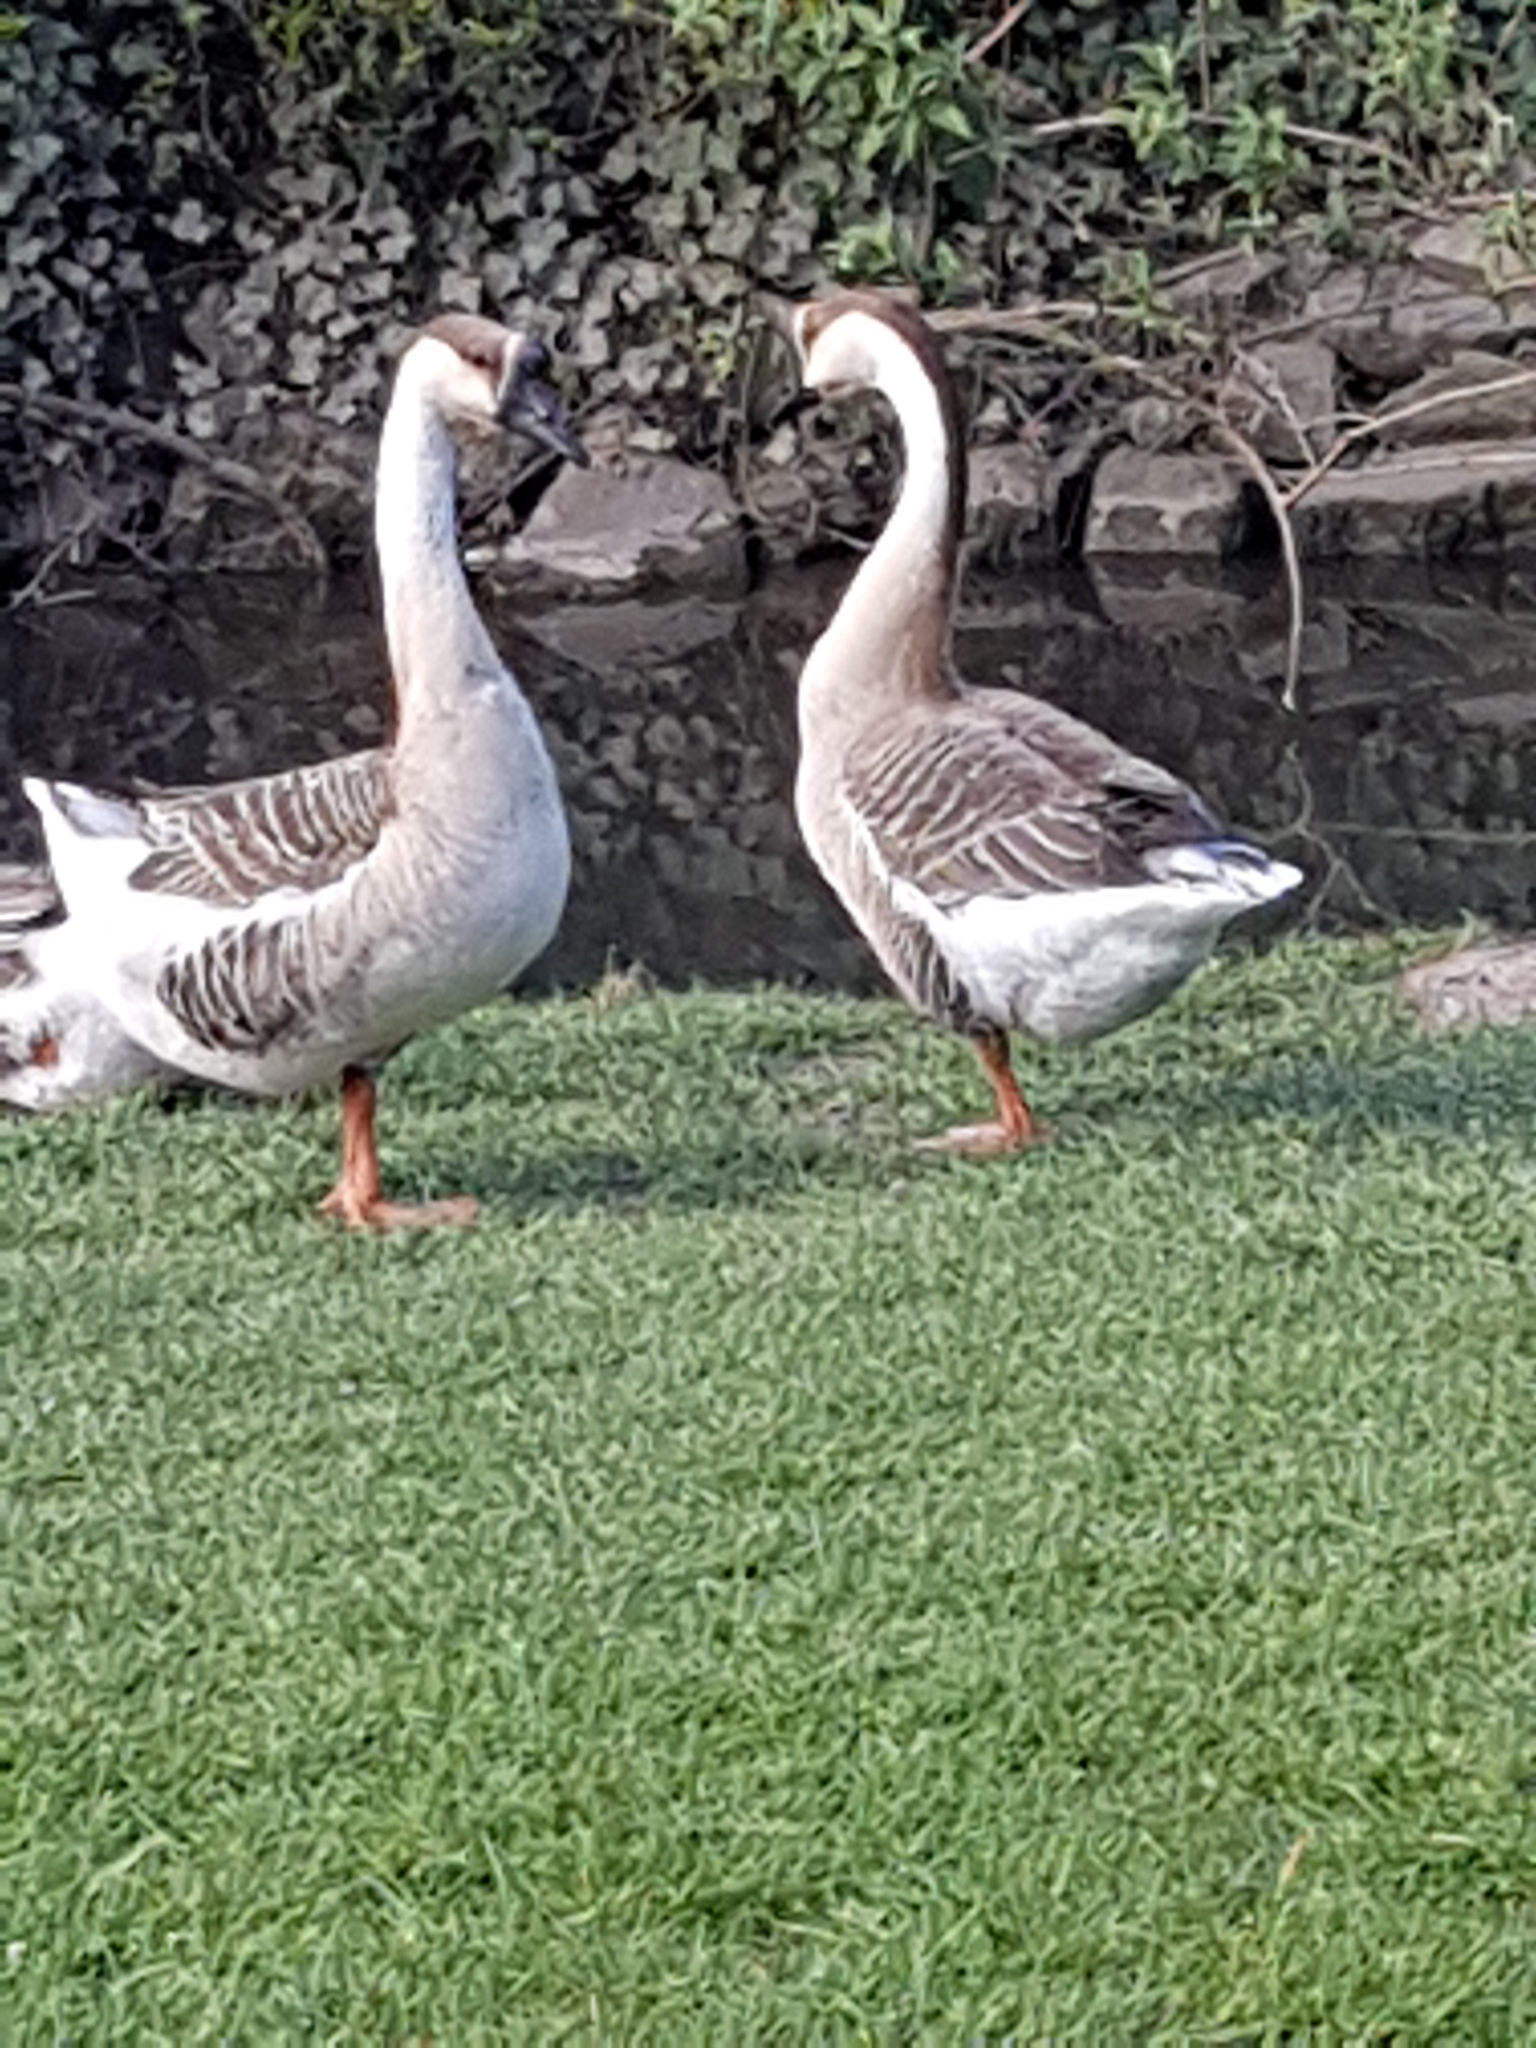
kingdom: Animalia
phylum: Chordata
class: Aves
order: Anseriformes
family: Anatidae
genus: Anser
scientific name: Anser cygnoides
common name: Swan goose
